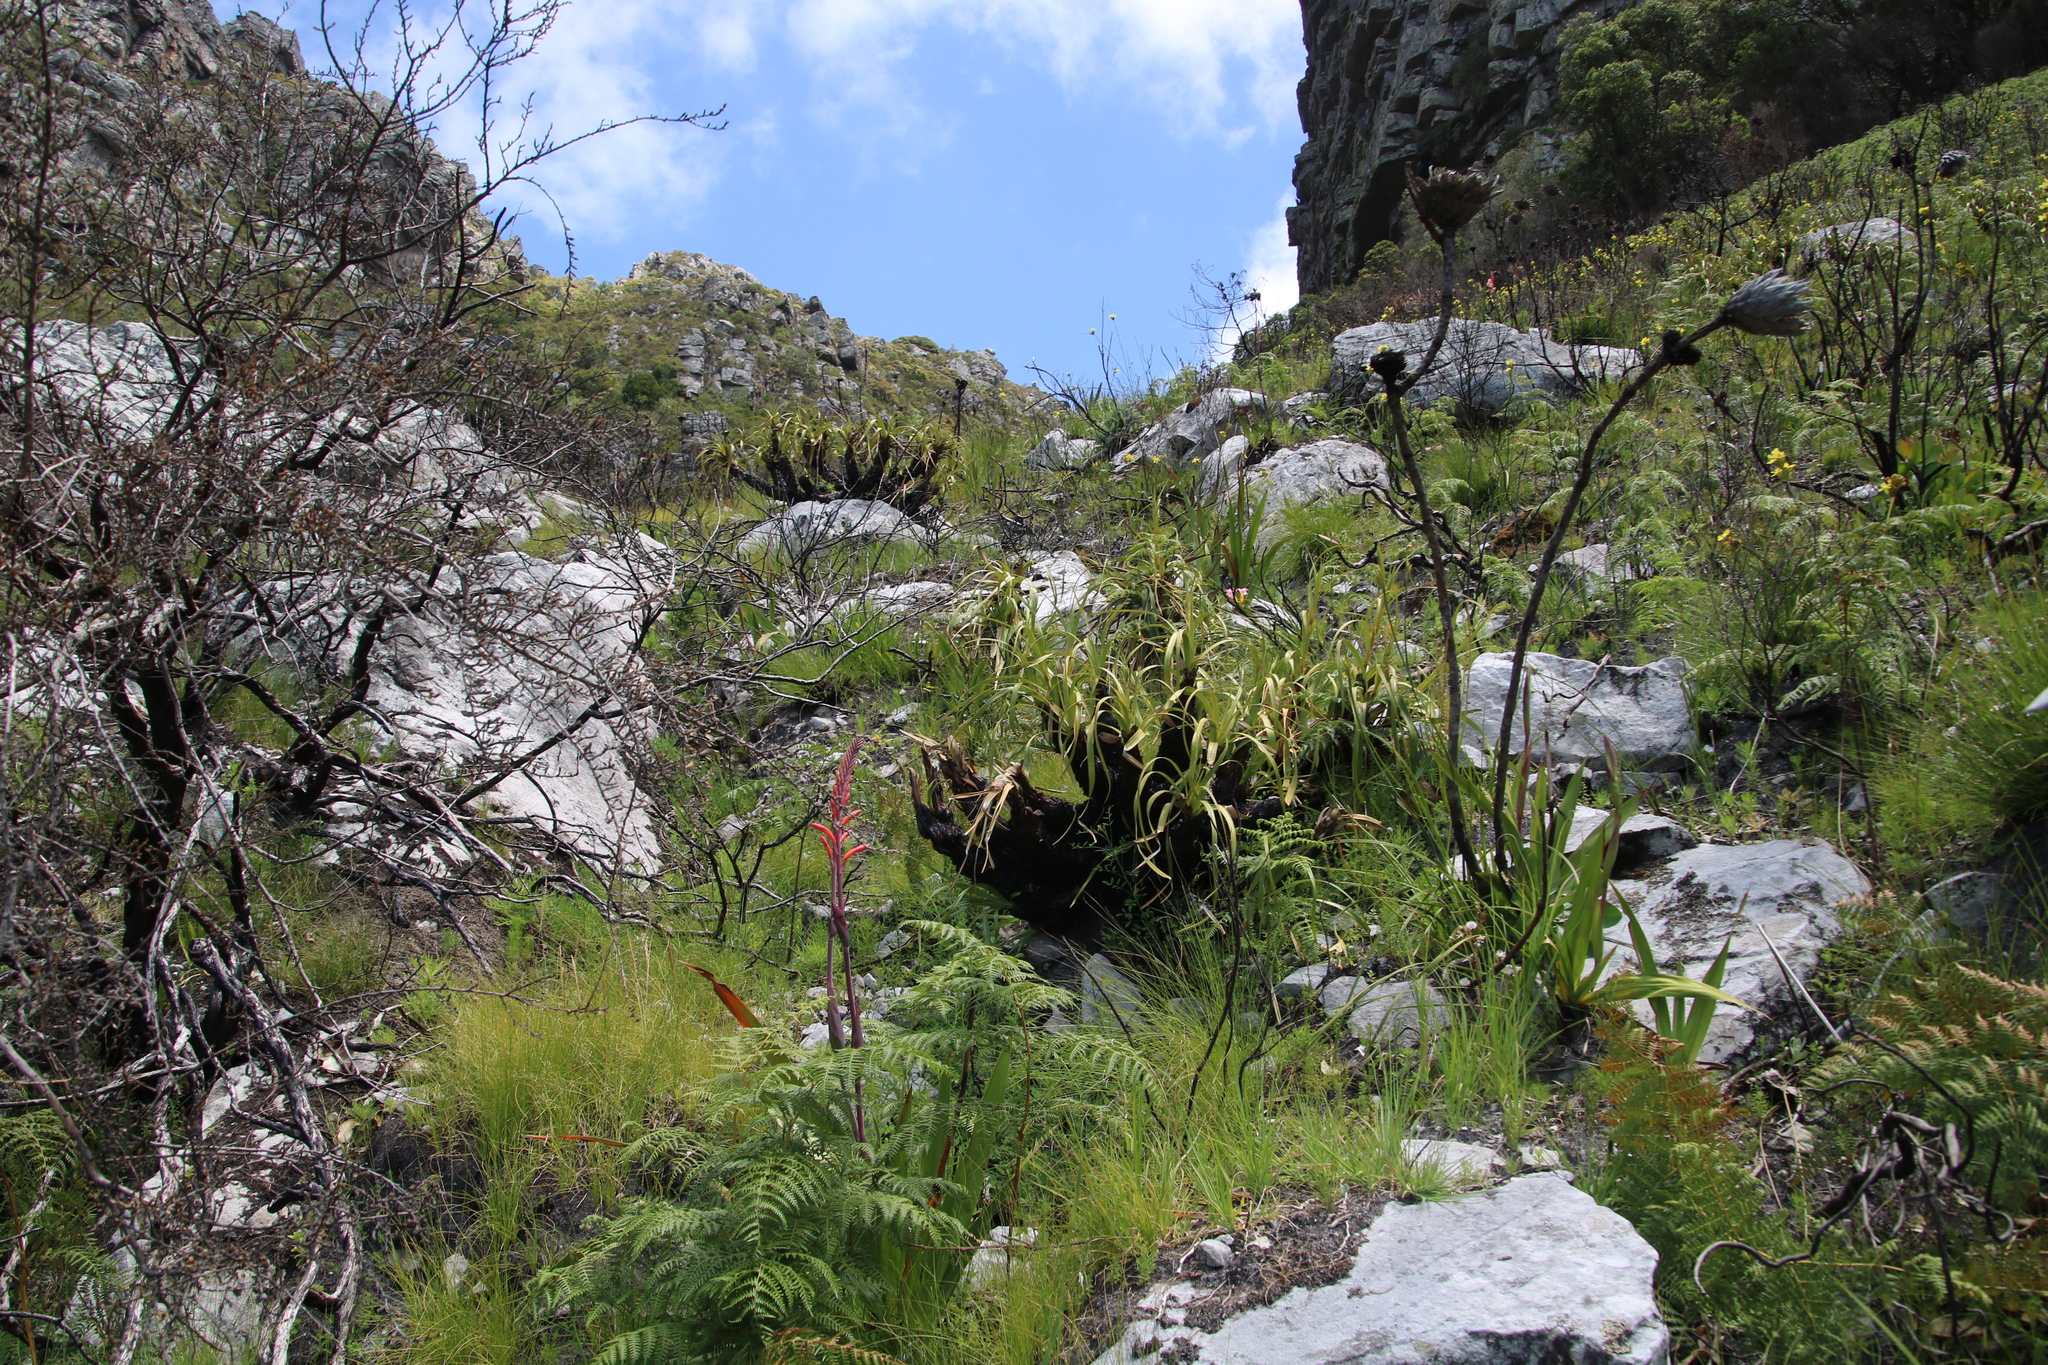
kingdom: Plantae
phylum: Tracheophyta
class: Liliopsida
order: Poales
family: Cyperaceae
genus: Tetraria
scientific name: Tetraria thermalis
